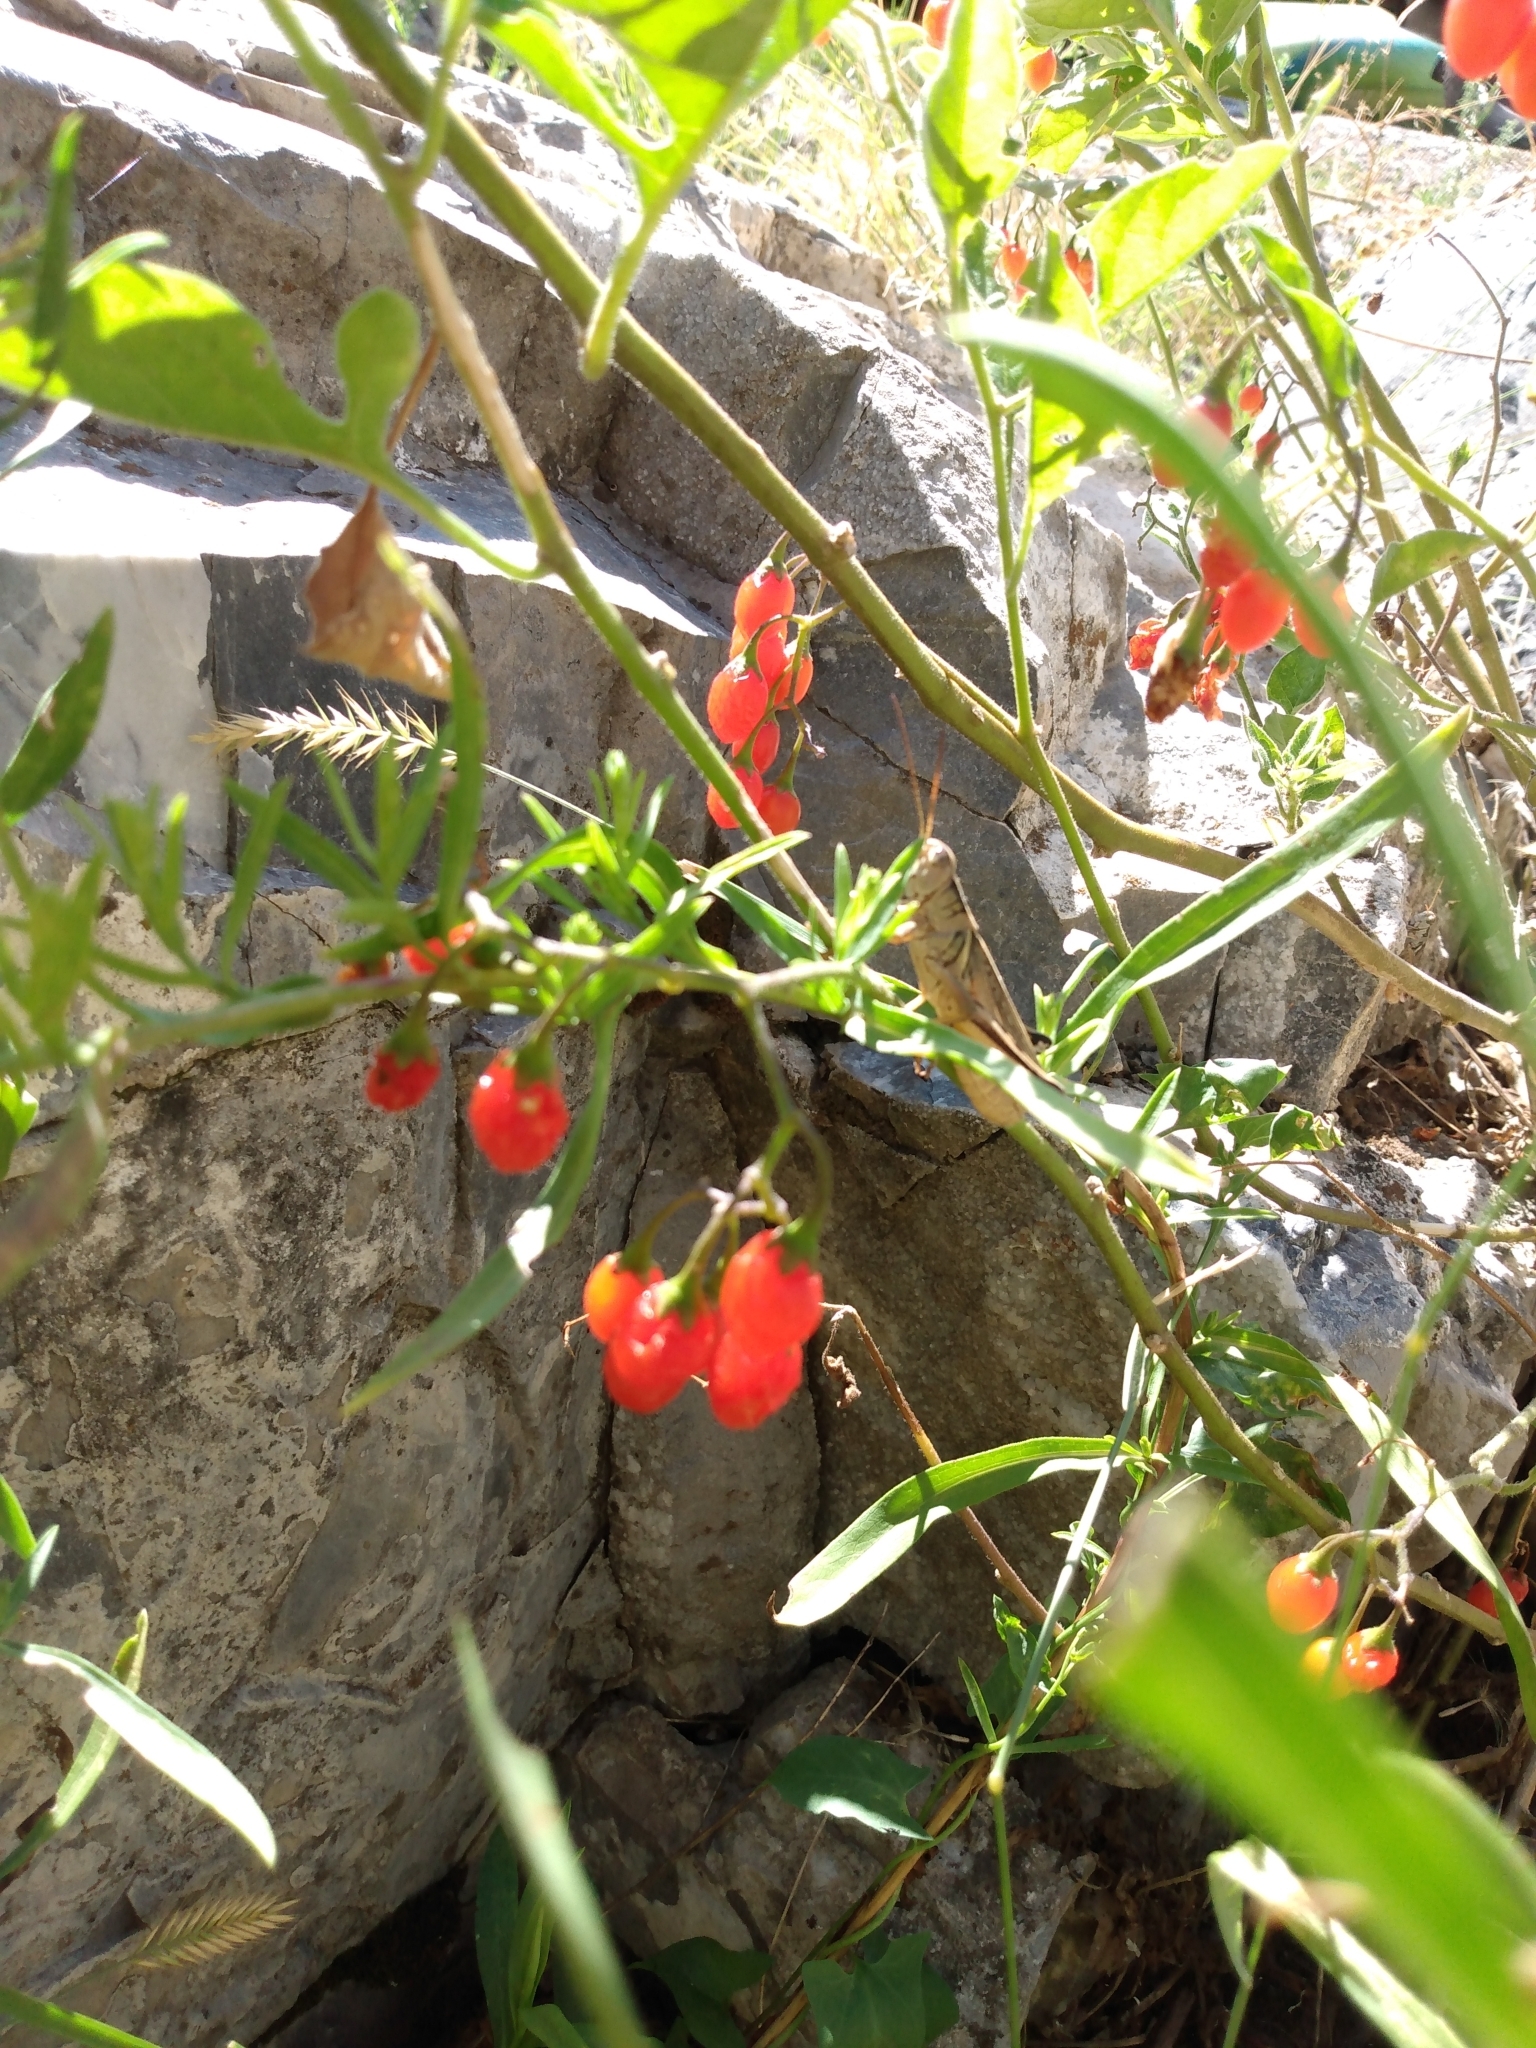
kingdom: Plantae
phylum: Tracheophyta
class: Magnoliopsida
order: Solanales
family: Solanaceae
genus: Solanum
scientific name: Solanum dulcamara
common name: Climbing nightshade
